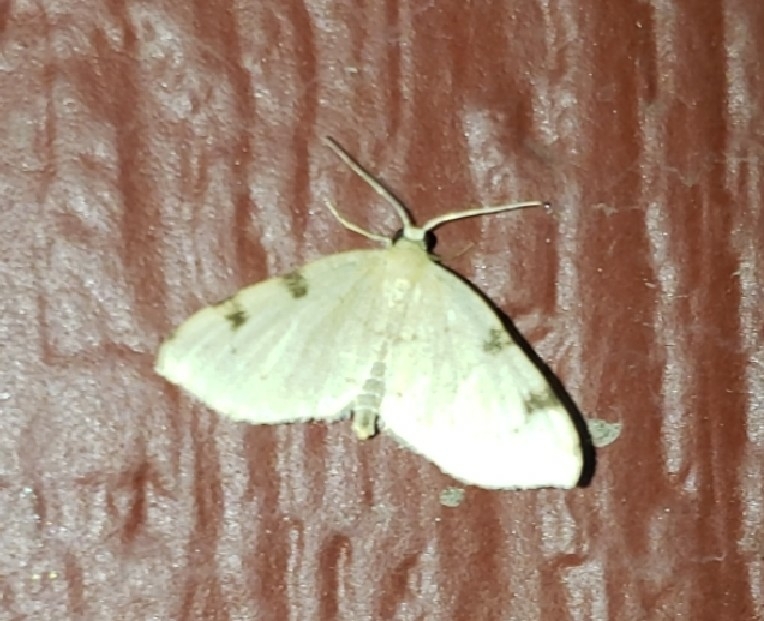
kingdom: Animalia
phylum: Arthropoda
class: Insecta
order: Lepidoptera
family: Geometridae
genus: Heterophleps
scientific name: Heterophleps triguttaria
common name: Three-spotted fillip
